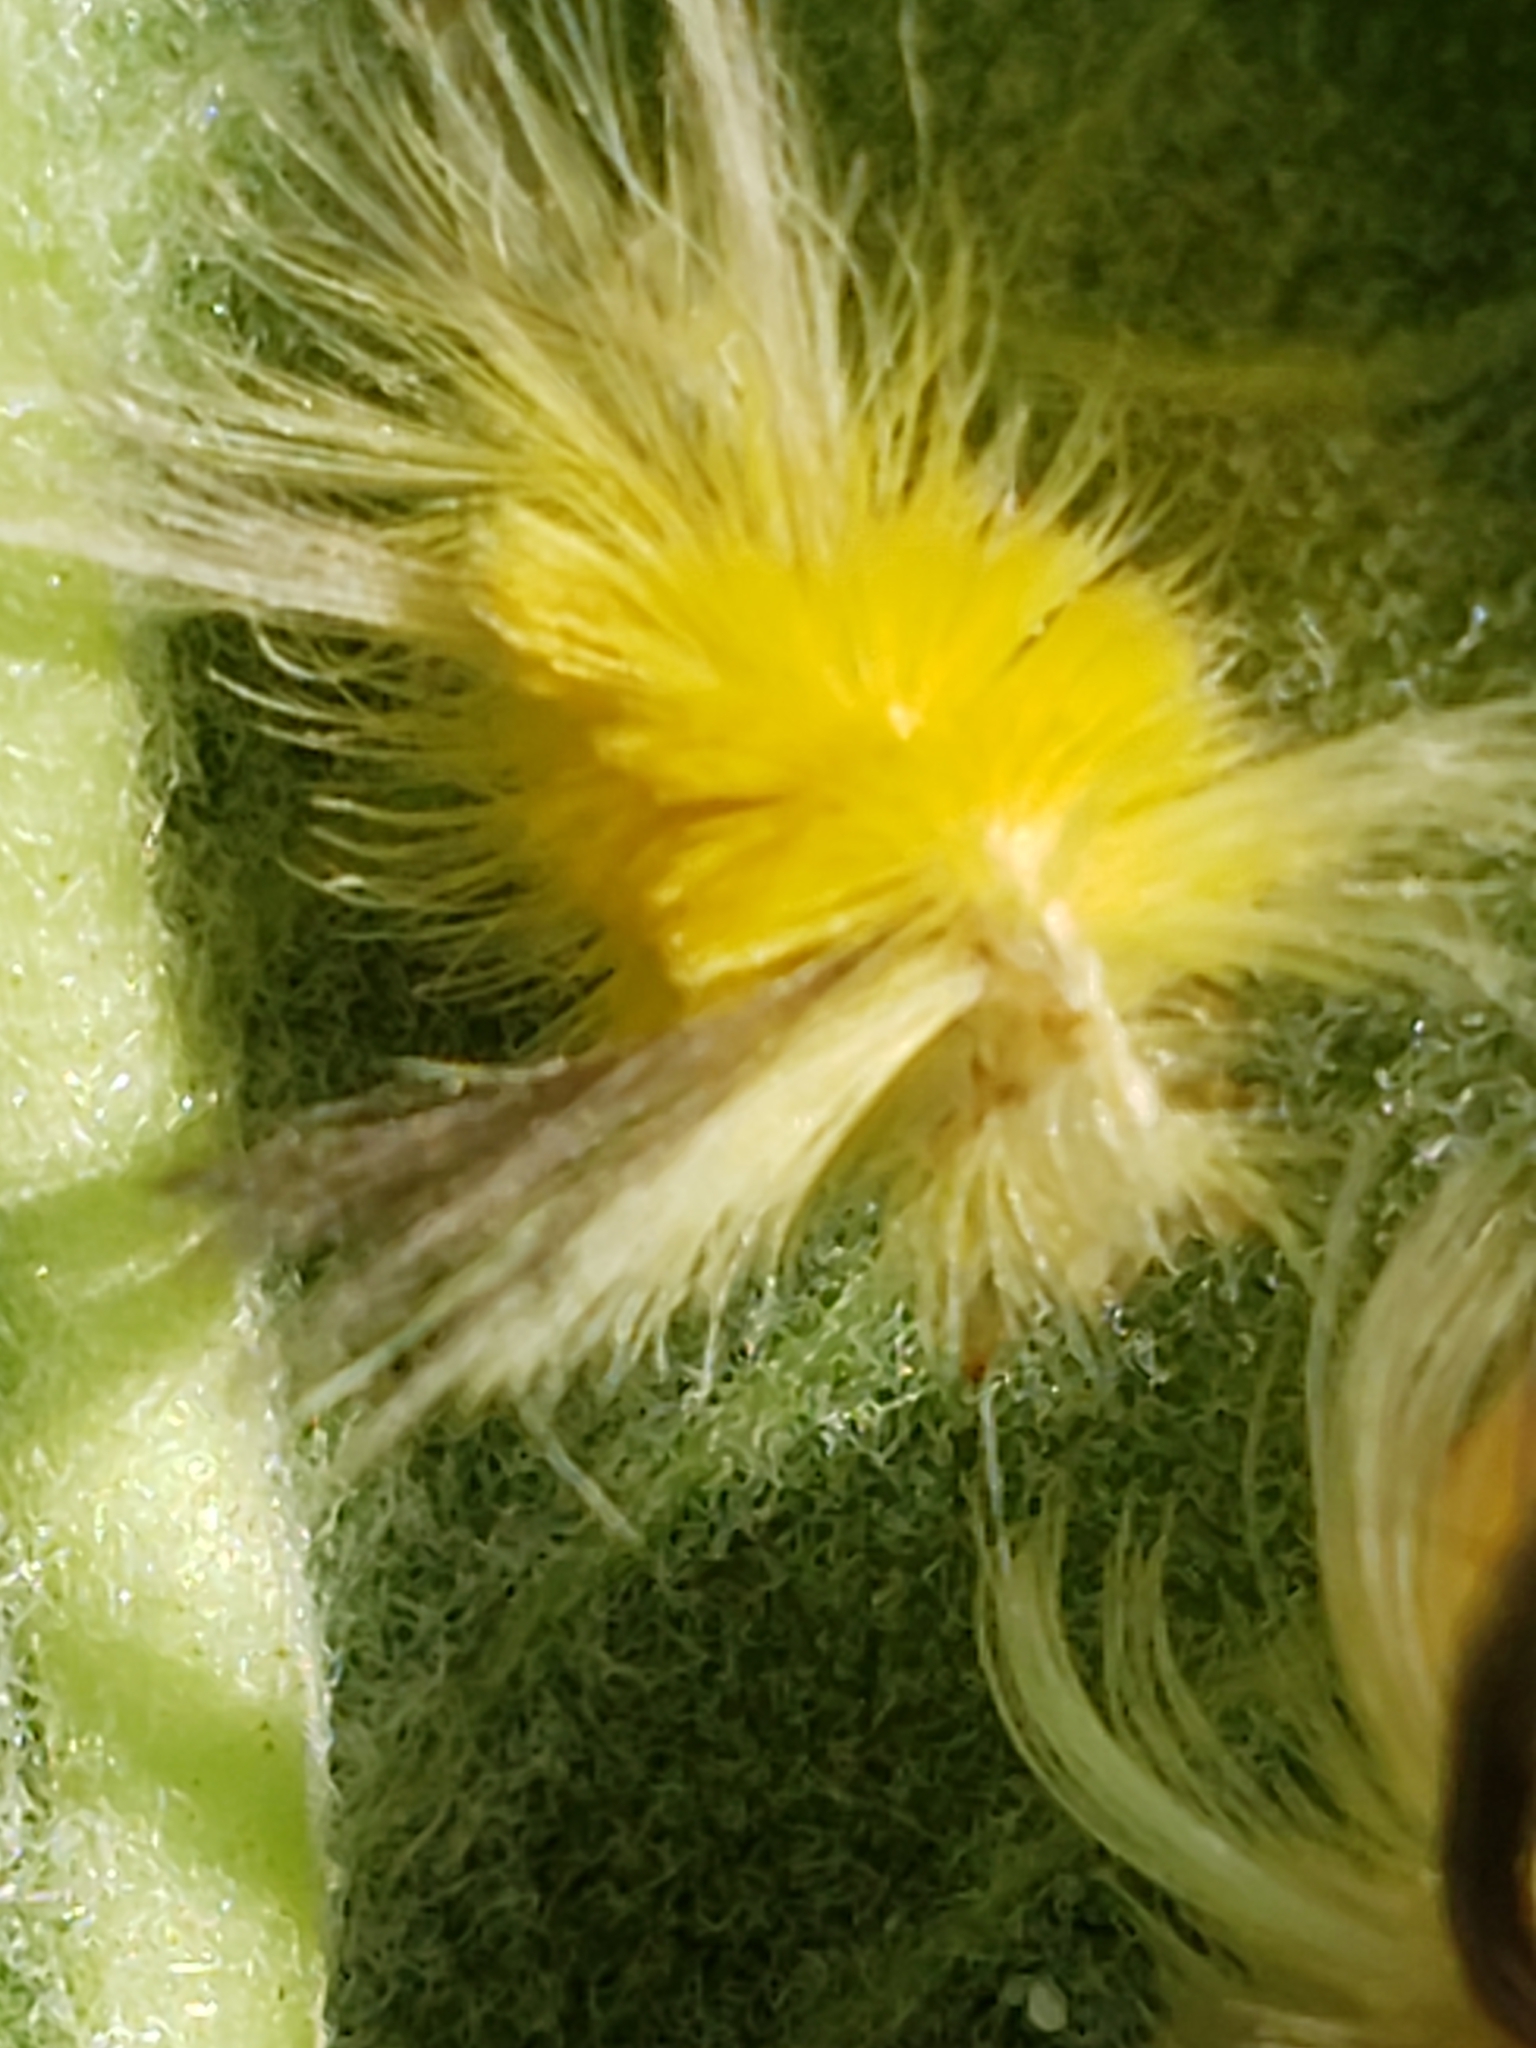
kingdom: Animalia
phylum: Arthropoda
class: Insecta
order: Lepidoptera
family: Erebidae
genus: Halysidota
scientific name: Halysidota tessellaris
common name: Banded tussock moth
